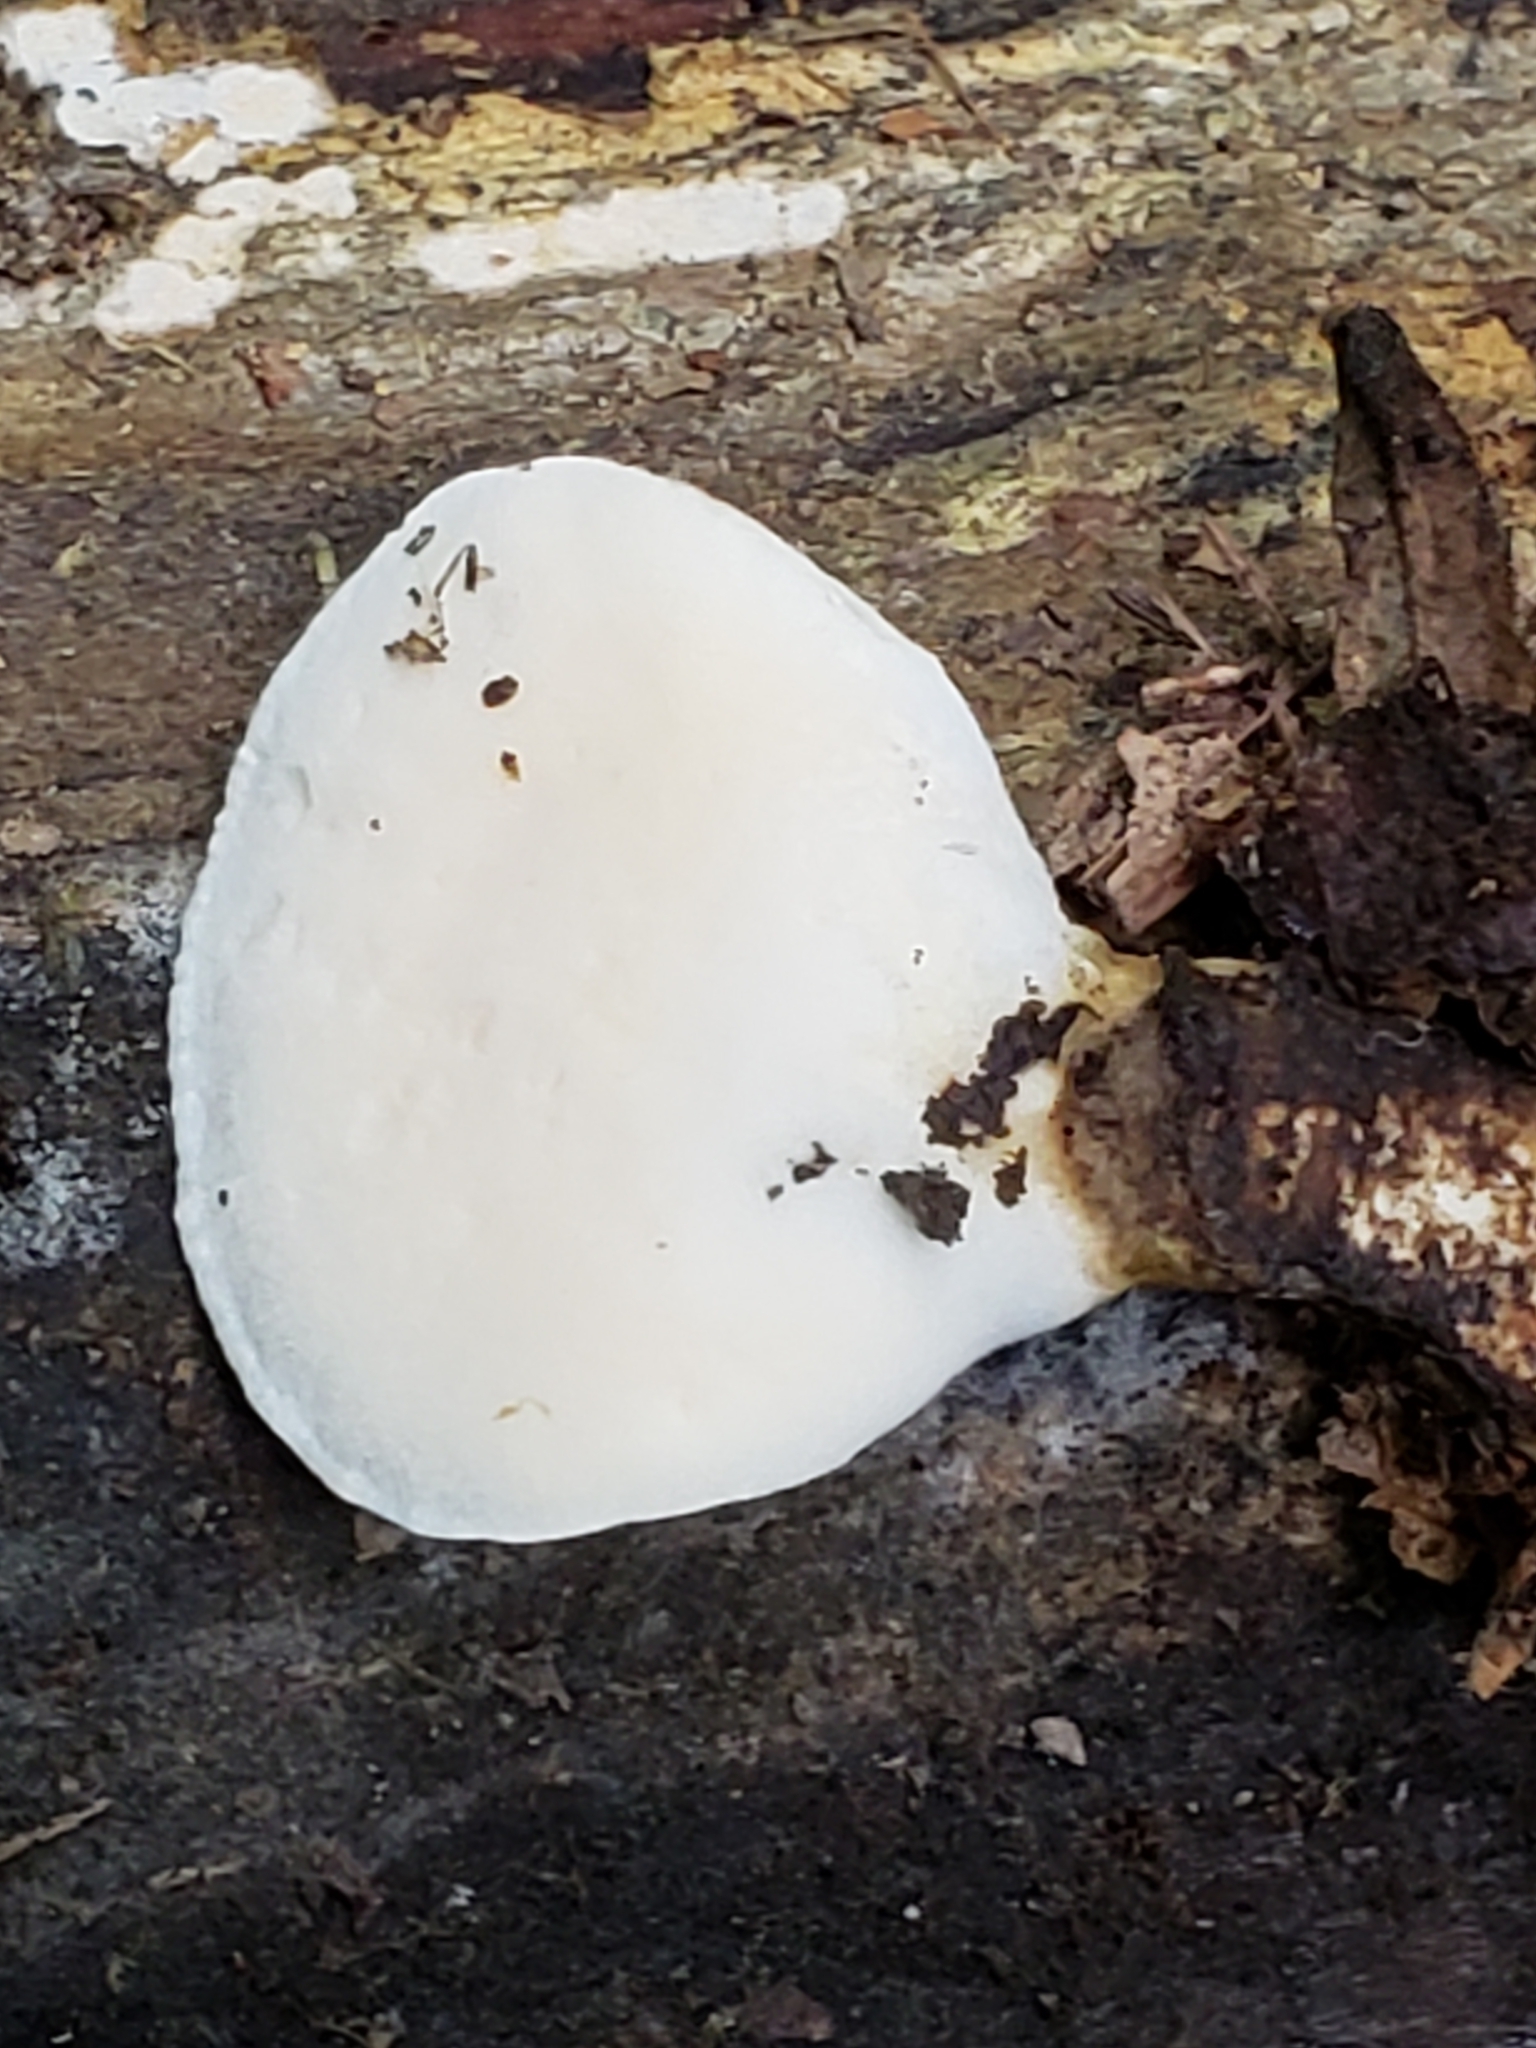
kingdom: Fungi
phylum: Basidiomycota
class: Agaricomycetes
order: Polyporales
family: Steccherinaceae
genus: Loweomyces
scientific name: Loweomyces fractipes
